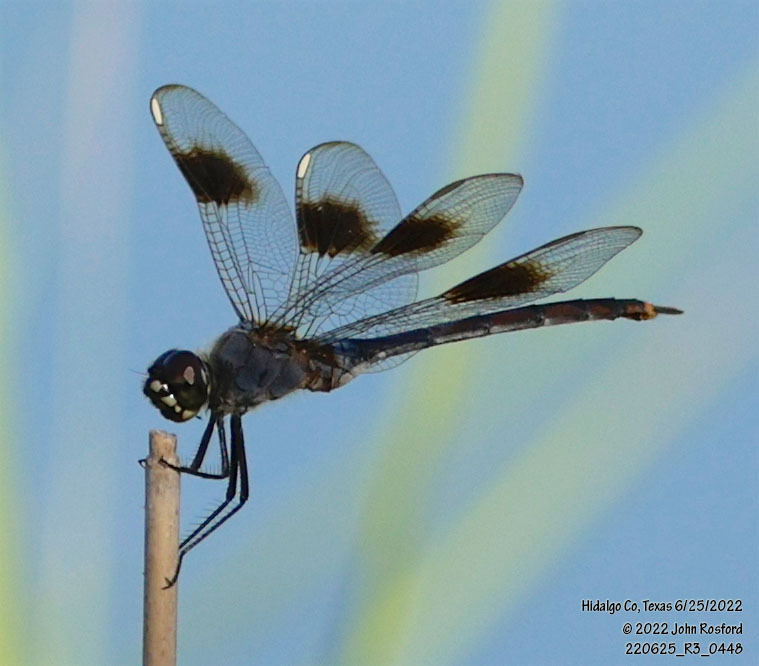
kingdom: Animalia
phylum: Arthropoda
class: Insecta
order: Odonata
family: Libellulidae
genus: Brachymesia
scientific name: Brachymesia gravida
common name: Four-spotted pennant
